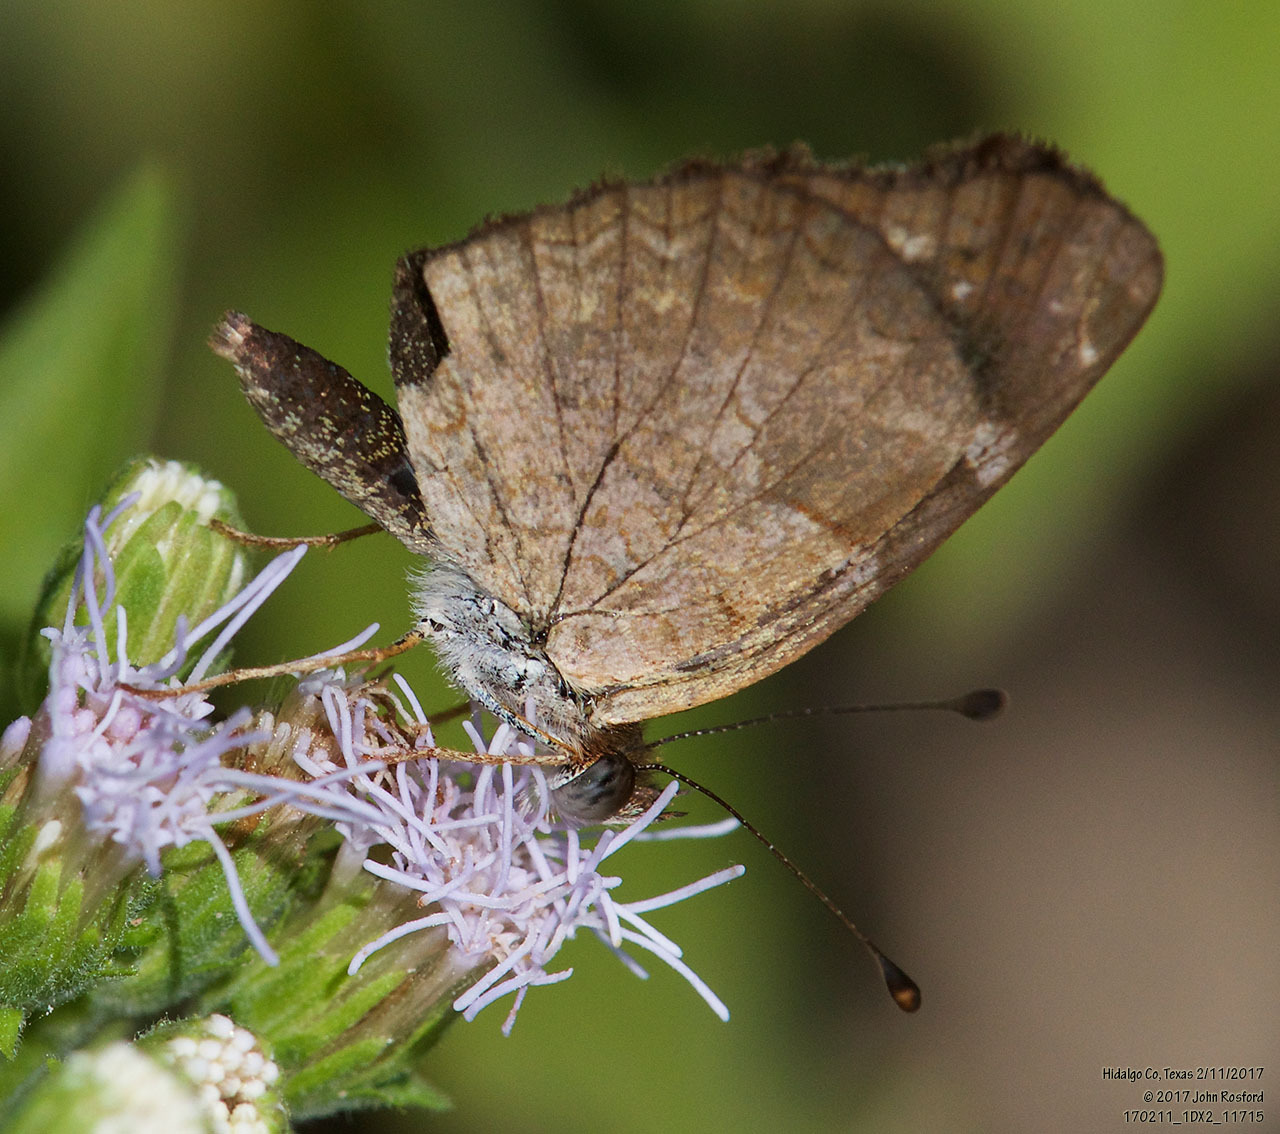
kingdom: Animalia
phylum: Arthropoda
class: Insecta
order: Lepidoptera
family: Nymphalidae
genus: Anthanassa
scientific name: Anthanassa argentea
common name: Chestnut crescent
